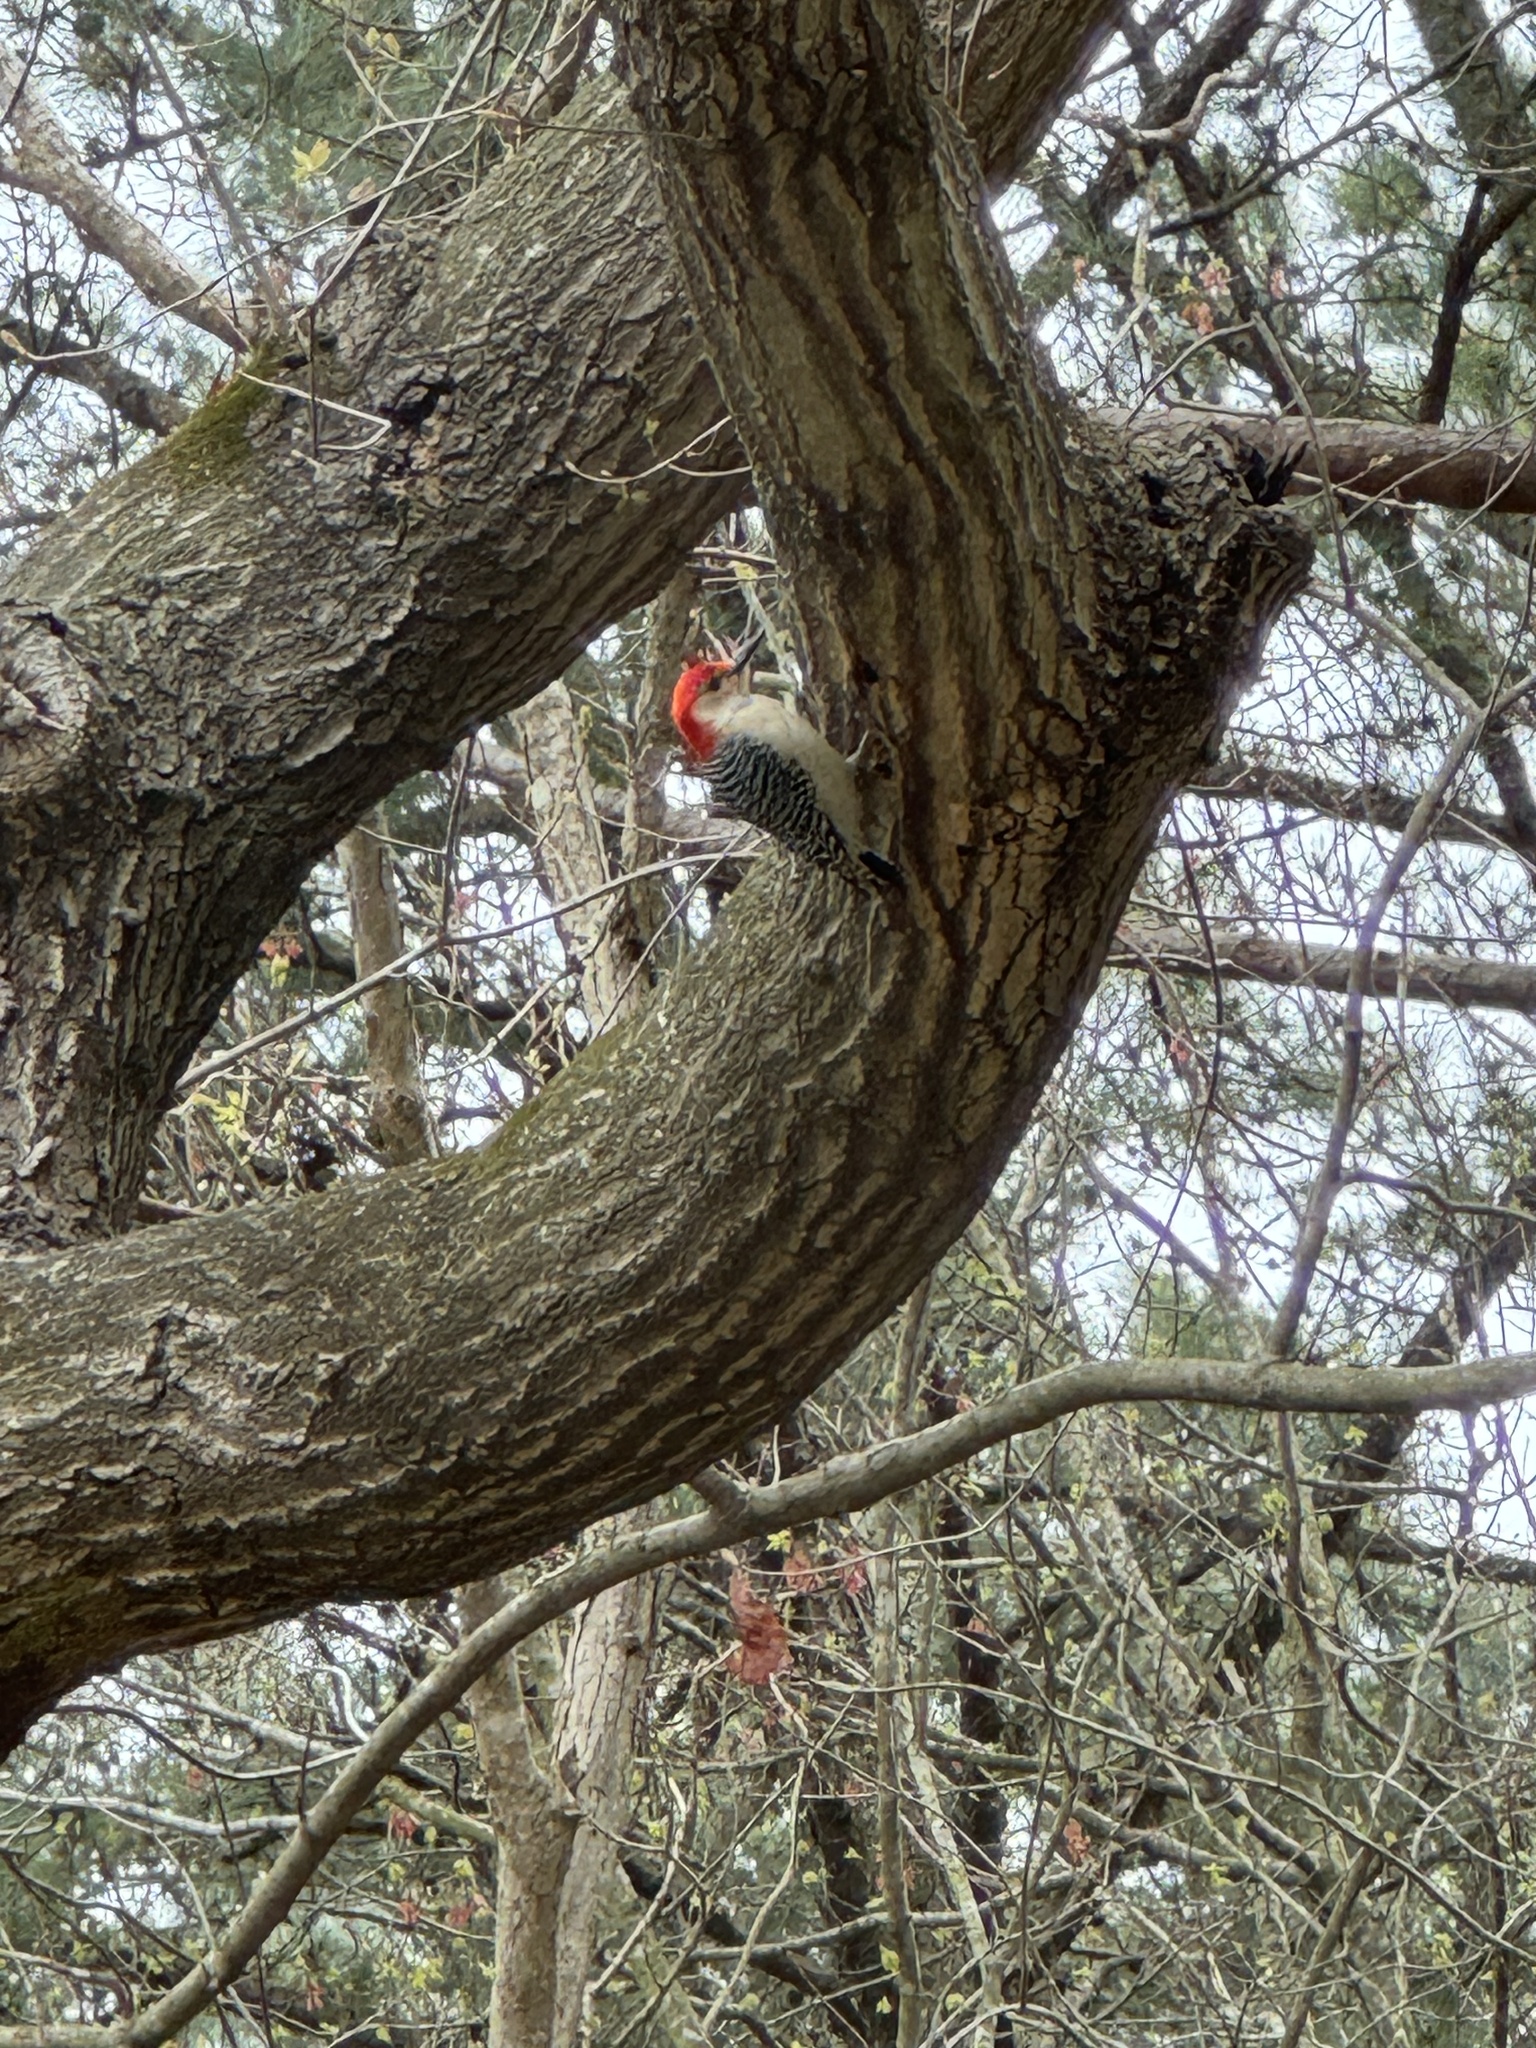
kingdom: Animalia
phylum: Chordata
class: Aves
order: Piciformes
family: Picidae
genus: Melanerpes
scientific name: Melanerpes carolinus
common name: Red-bellied woodpecker
